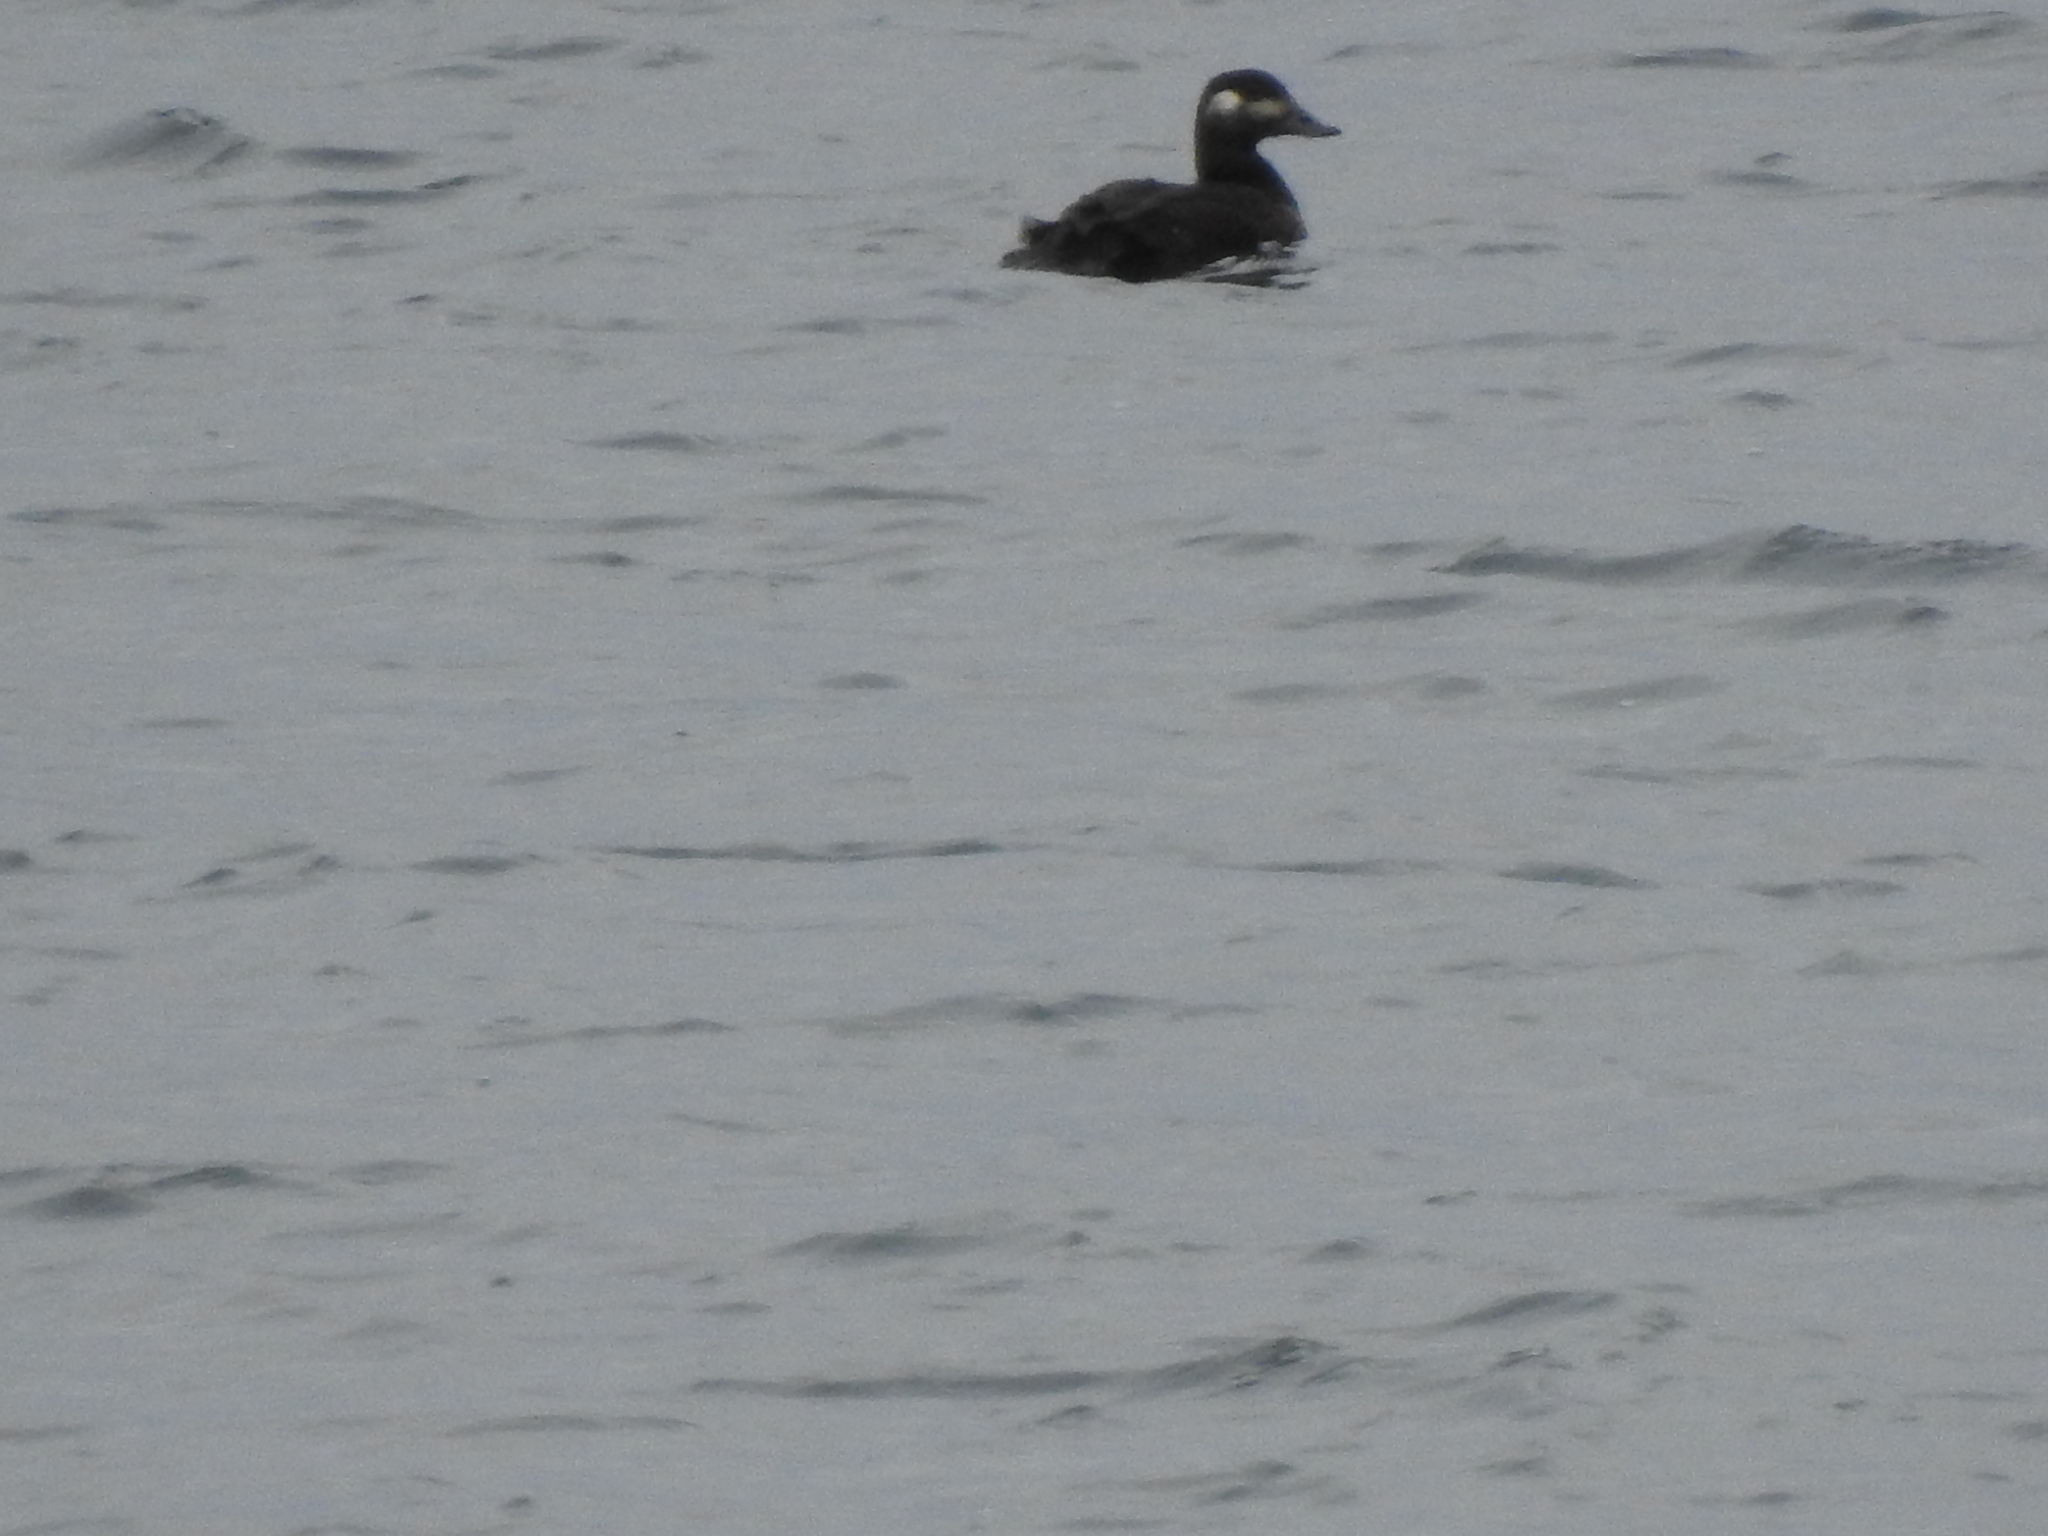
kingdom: Animalia
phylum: Chordata
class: Aves
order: Anseriformes
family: Anatidae
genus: Melanitta
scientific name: Melanitta fusca
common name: Velvet scoter
